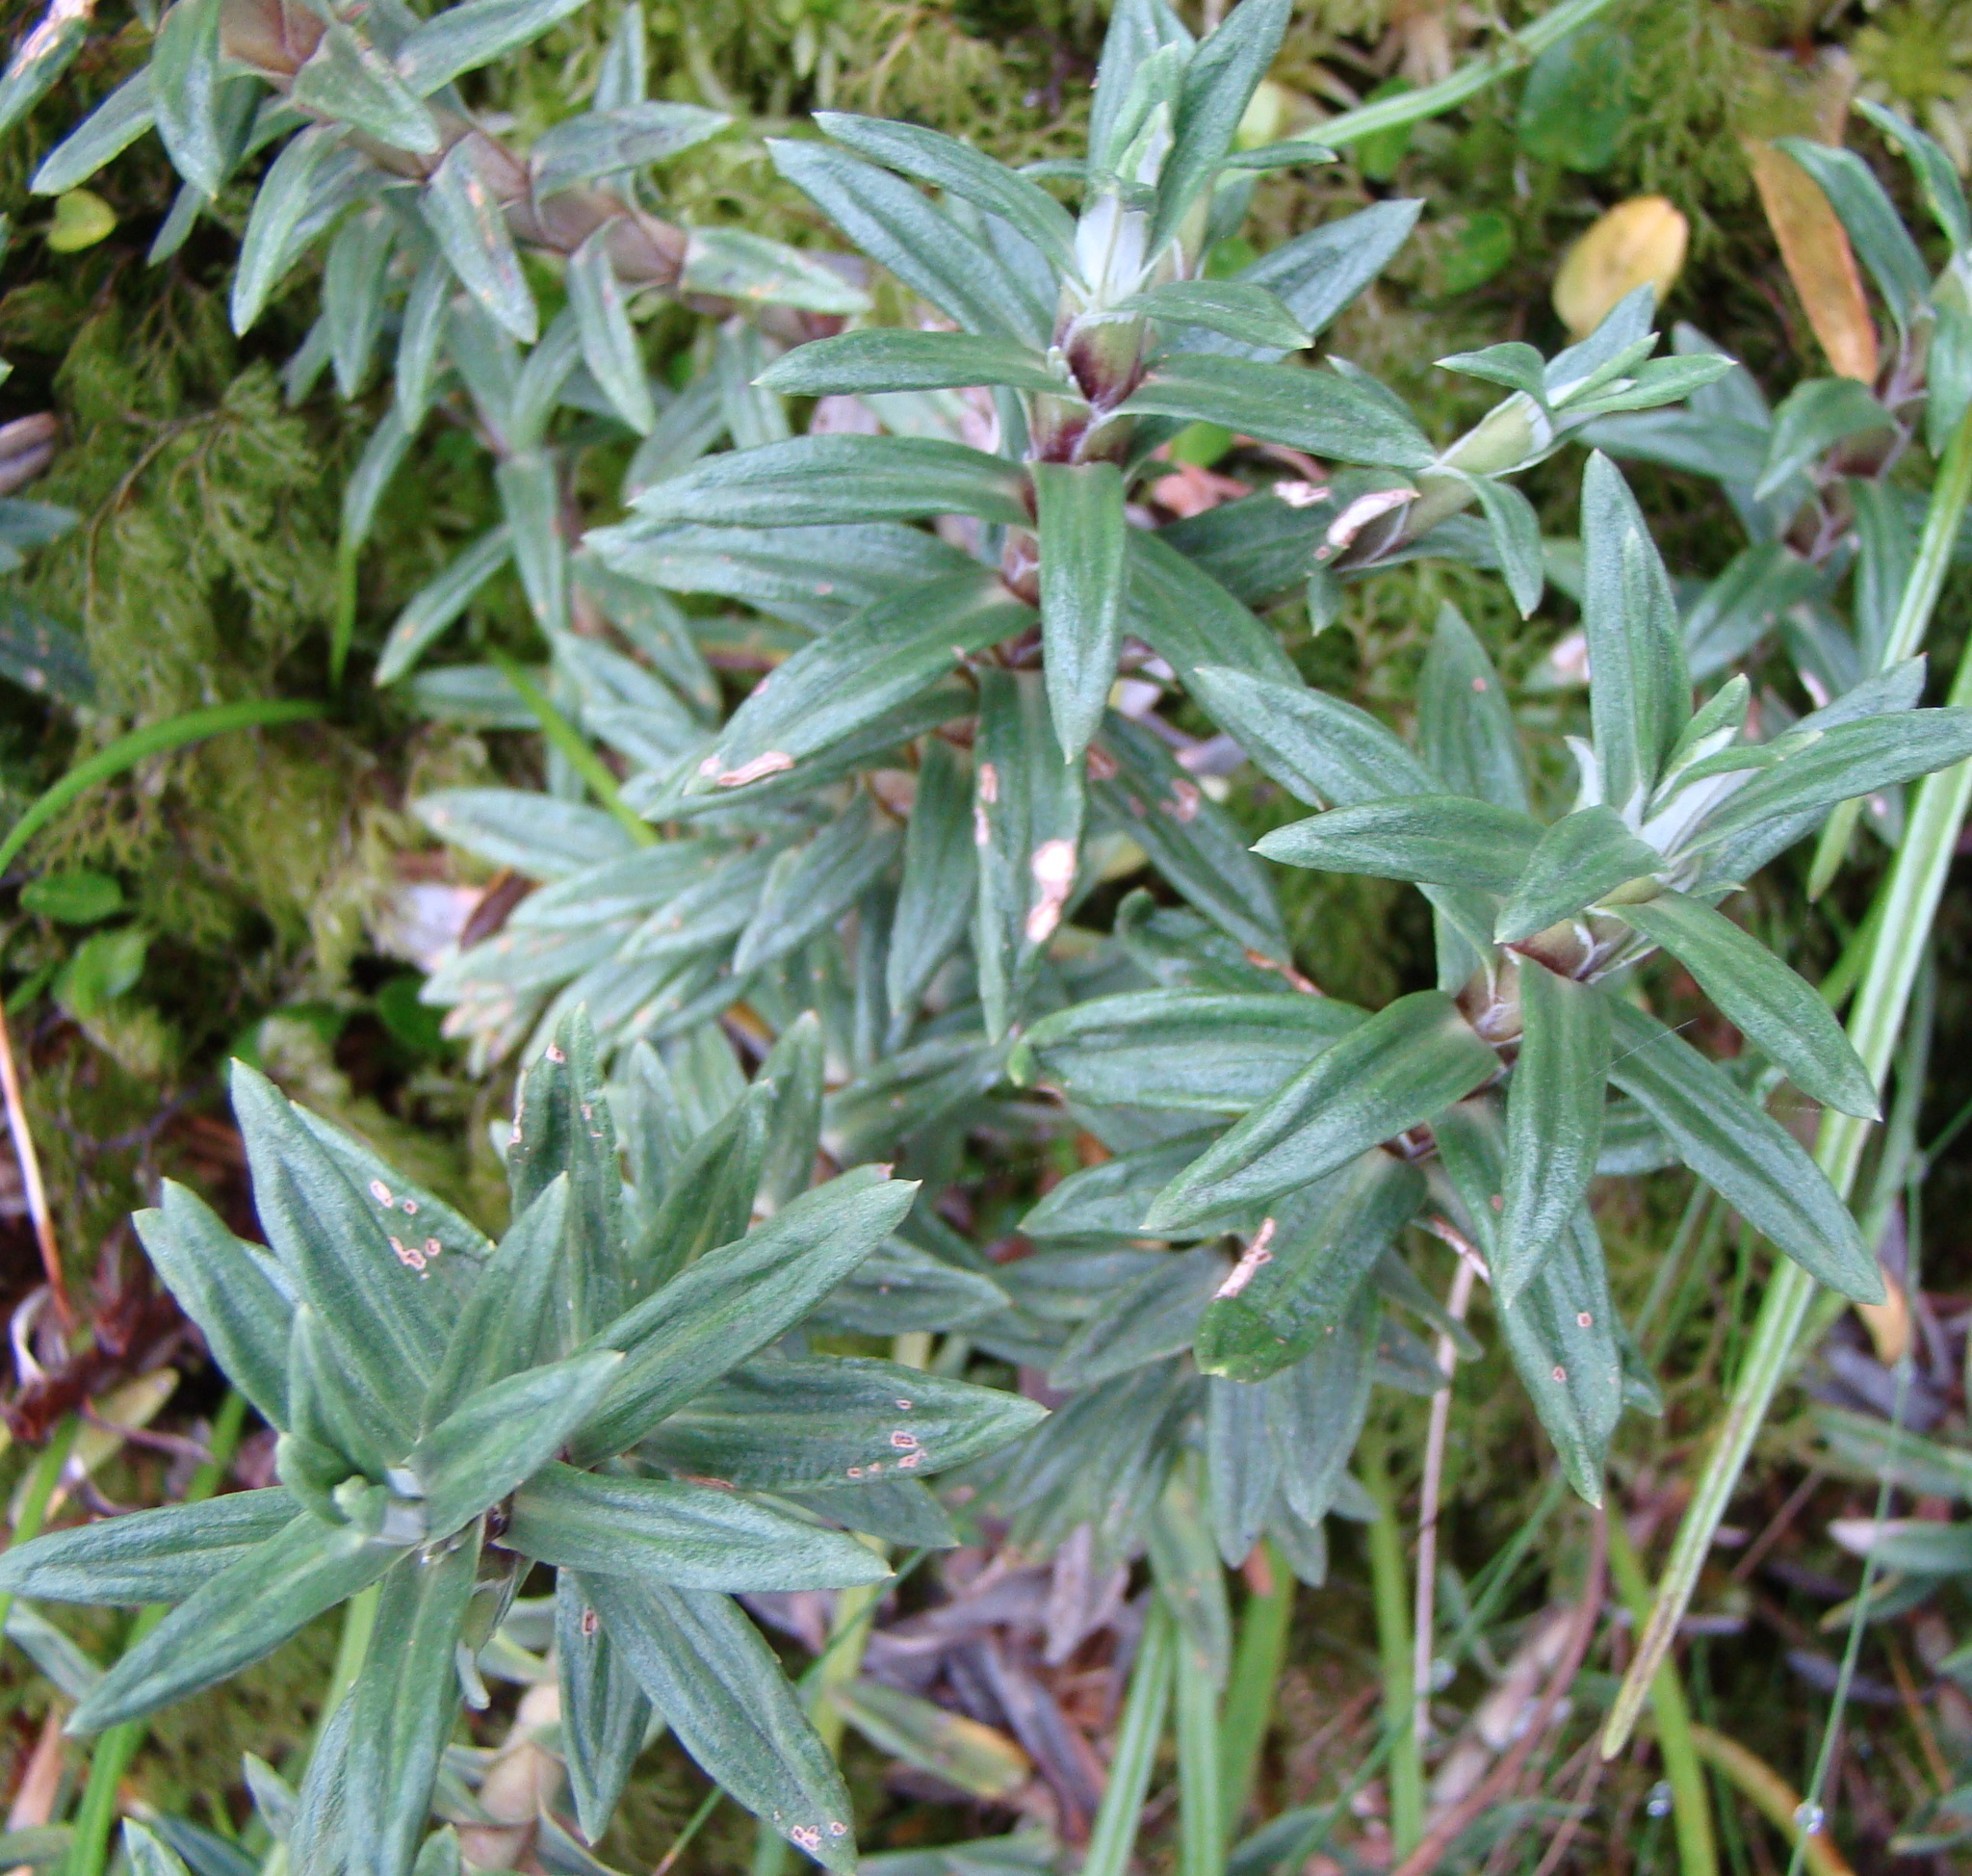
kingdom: Plantae
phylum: Tracheophyta
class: Magnoliopsida
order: Asterales
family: Asteraceae
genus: Celmisia
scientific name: Celmisia walkeri
